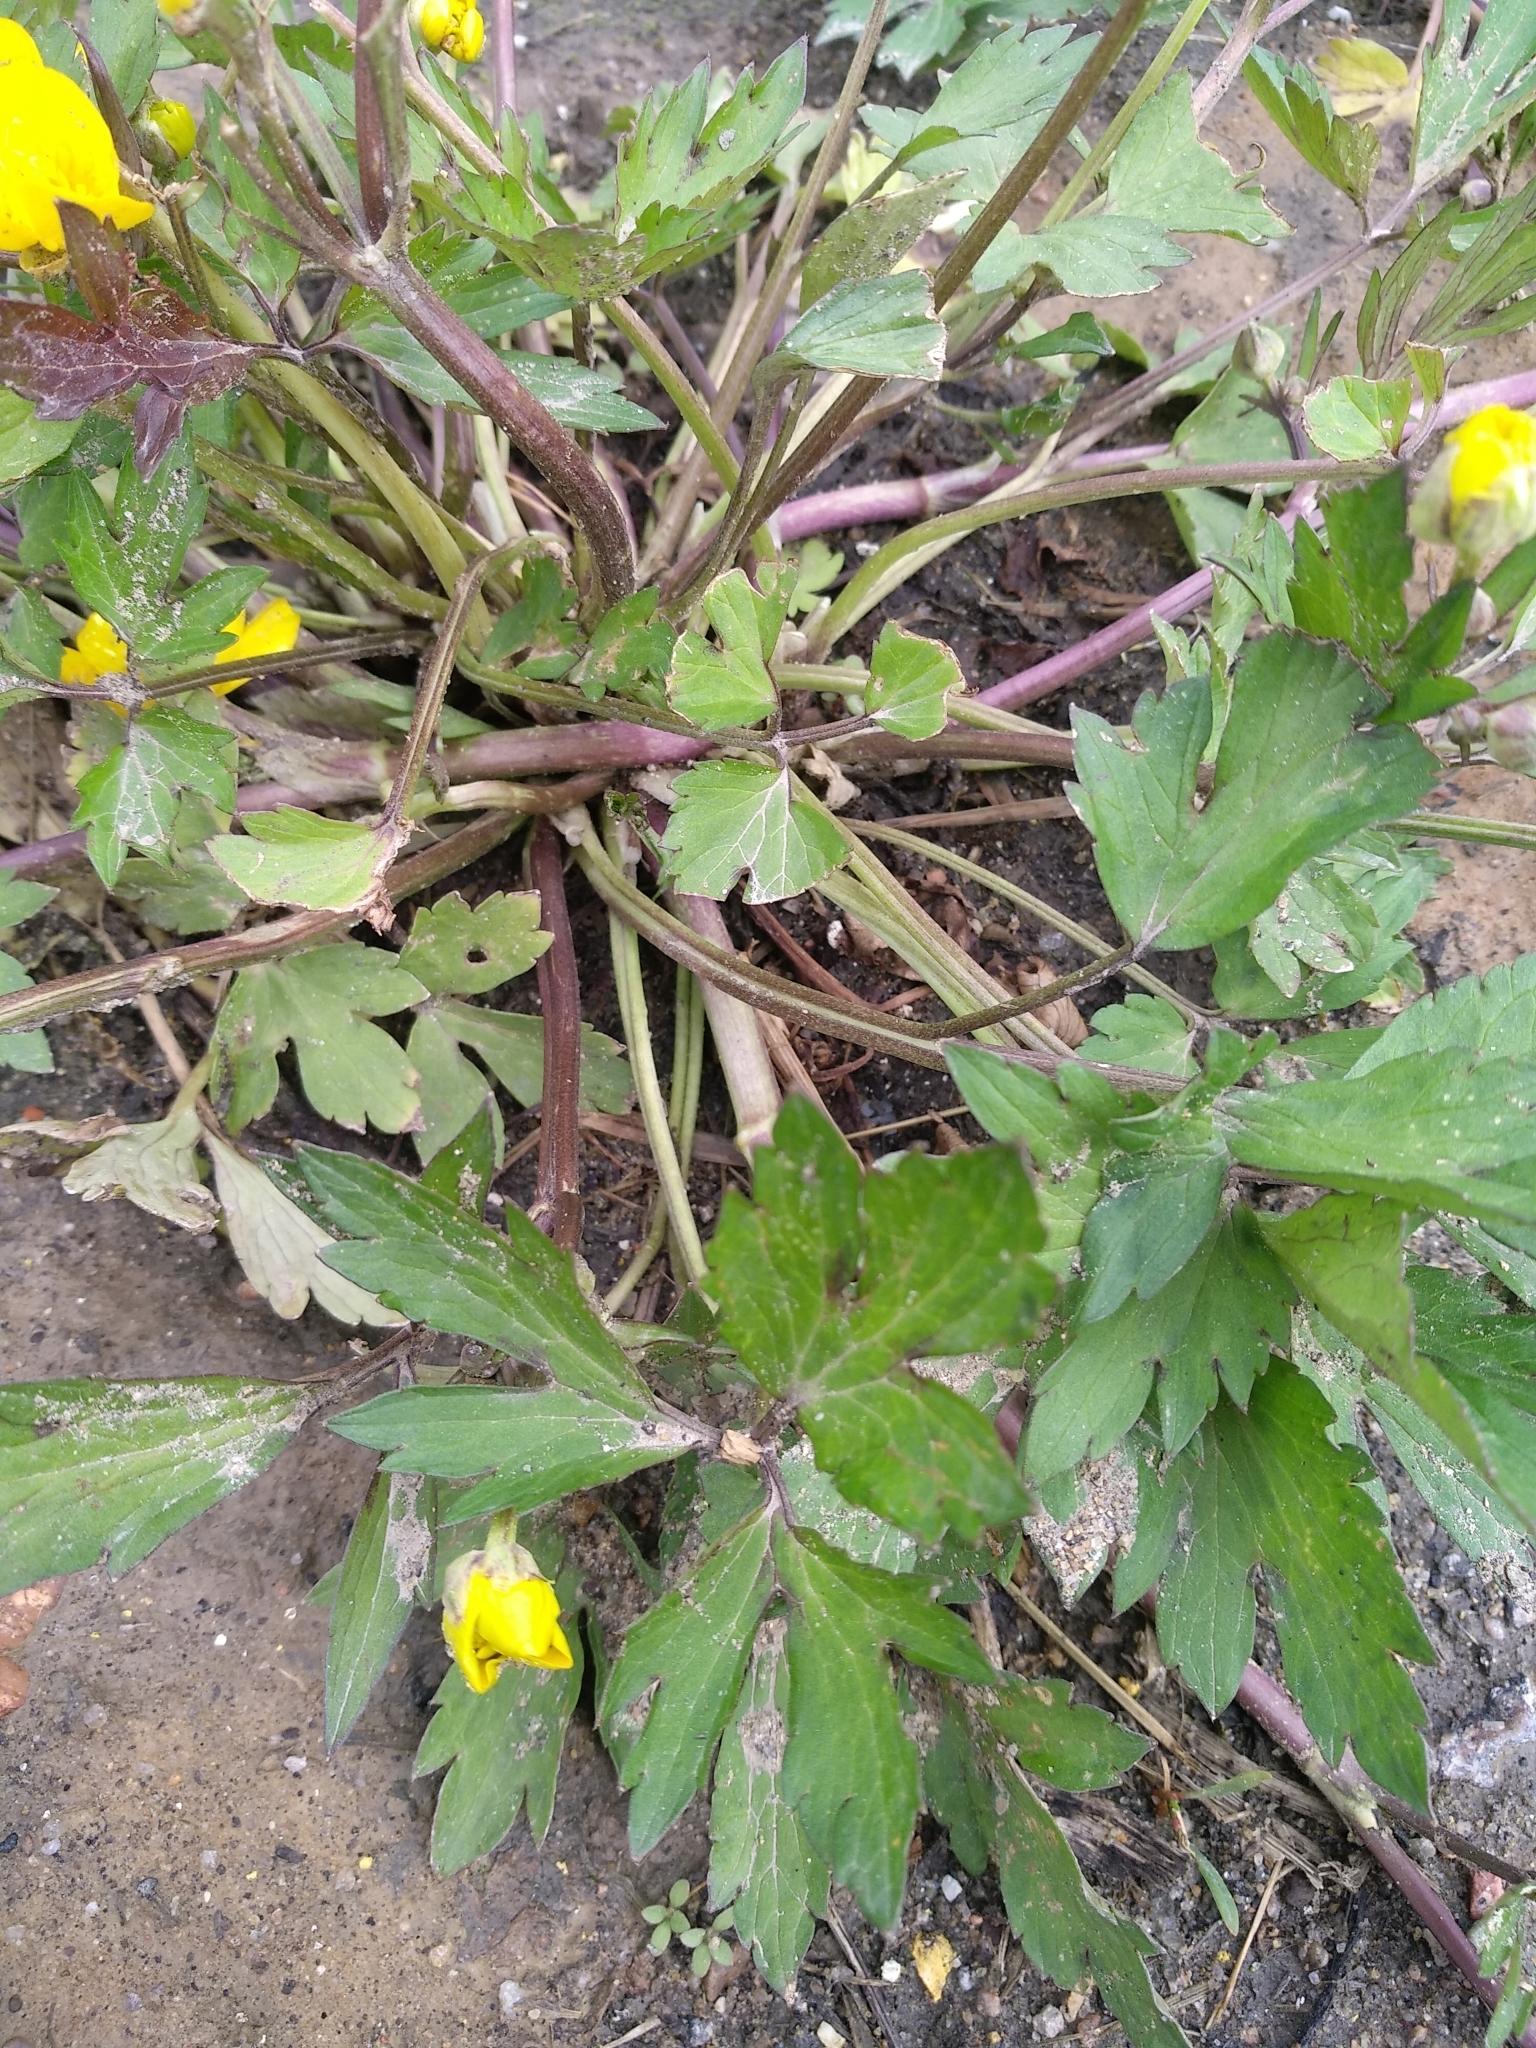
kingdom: Plantae
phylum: Tracheophyta
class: Magnoliopsida
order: Ranunculales
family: Ranunculaceae
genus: Ranunculus
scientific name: Ranunculus repens
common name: Creeping buttercup
